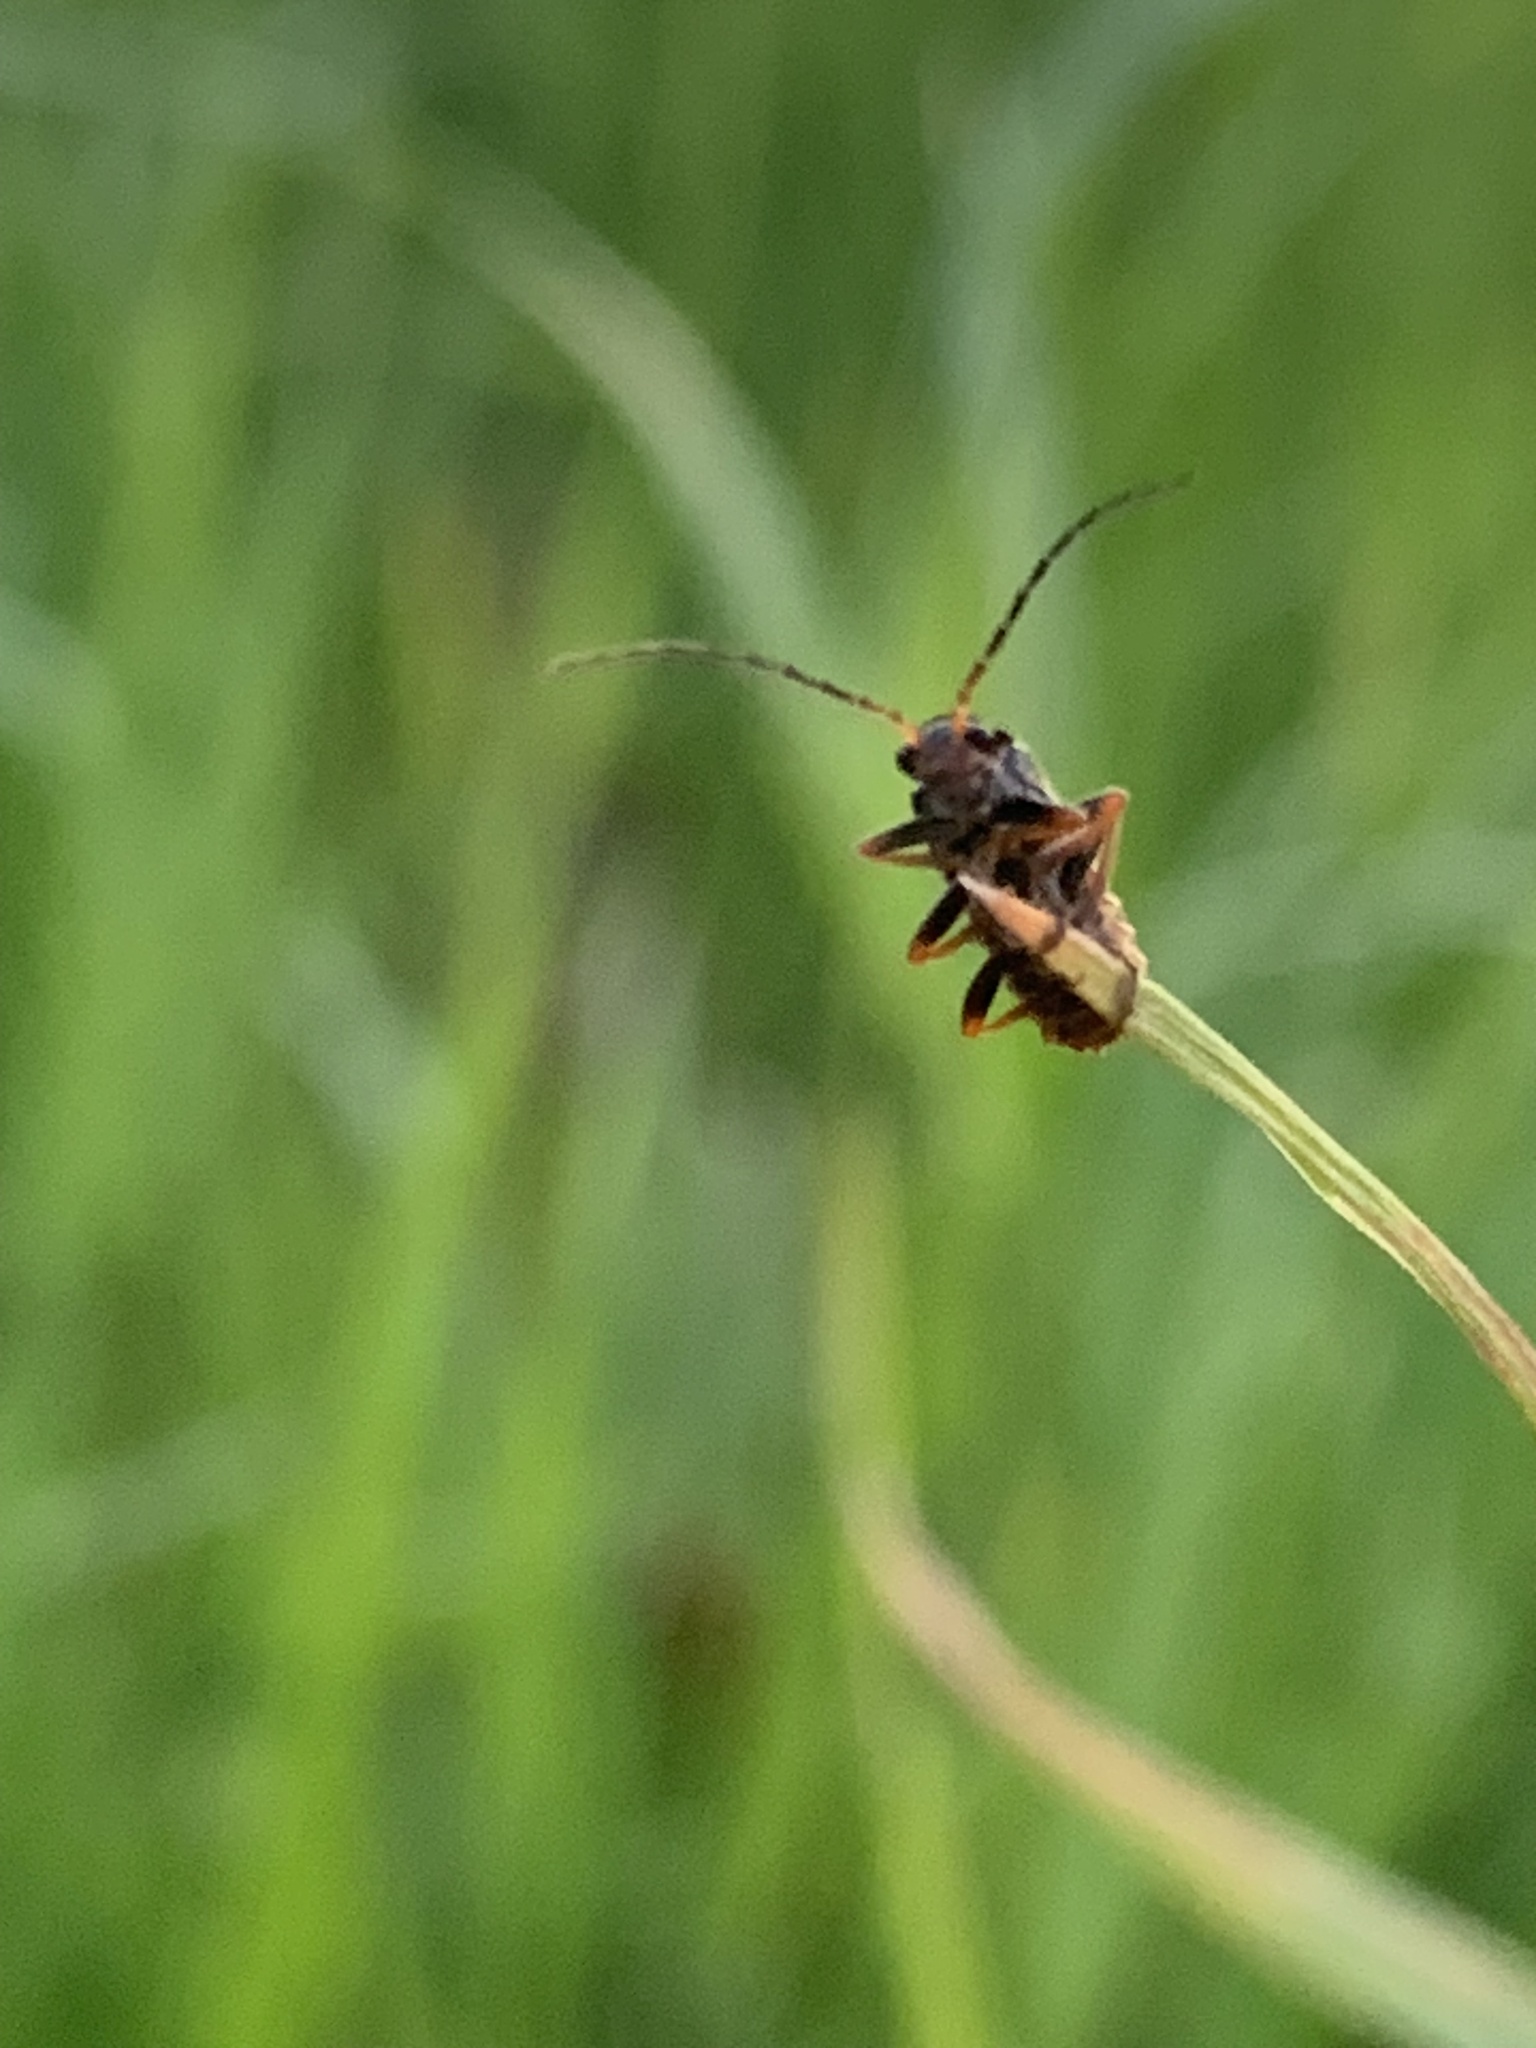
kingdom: Animalia
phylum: Arthropoda
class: Insecta
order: Coleoptera
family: Cantharidae
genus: Cantharis
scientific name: Cantharis flavilabris
